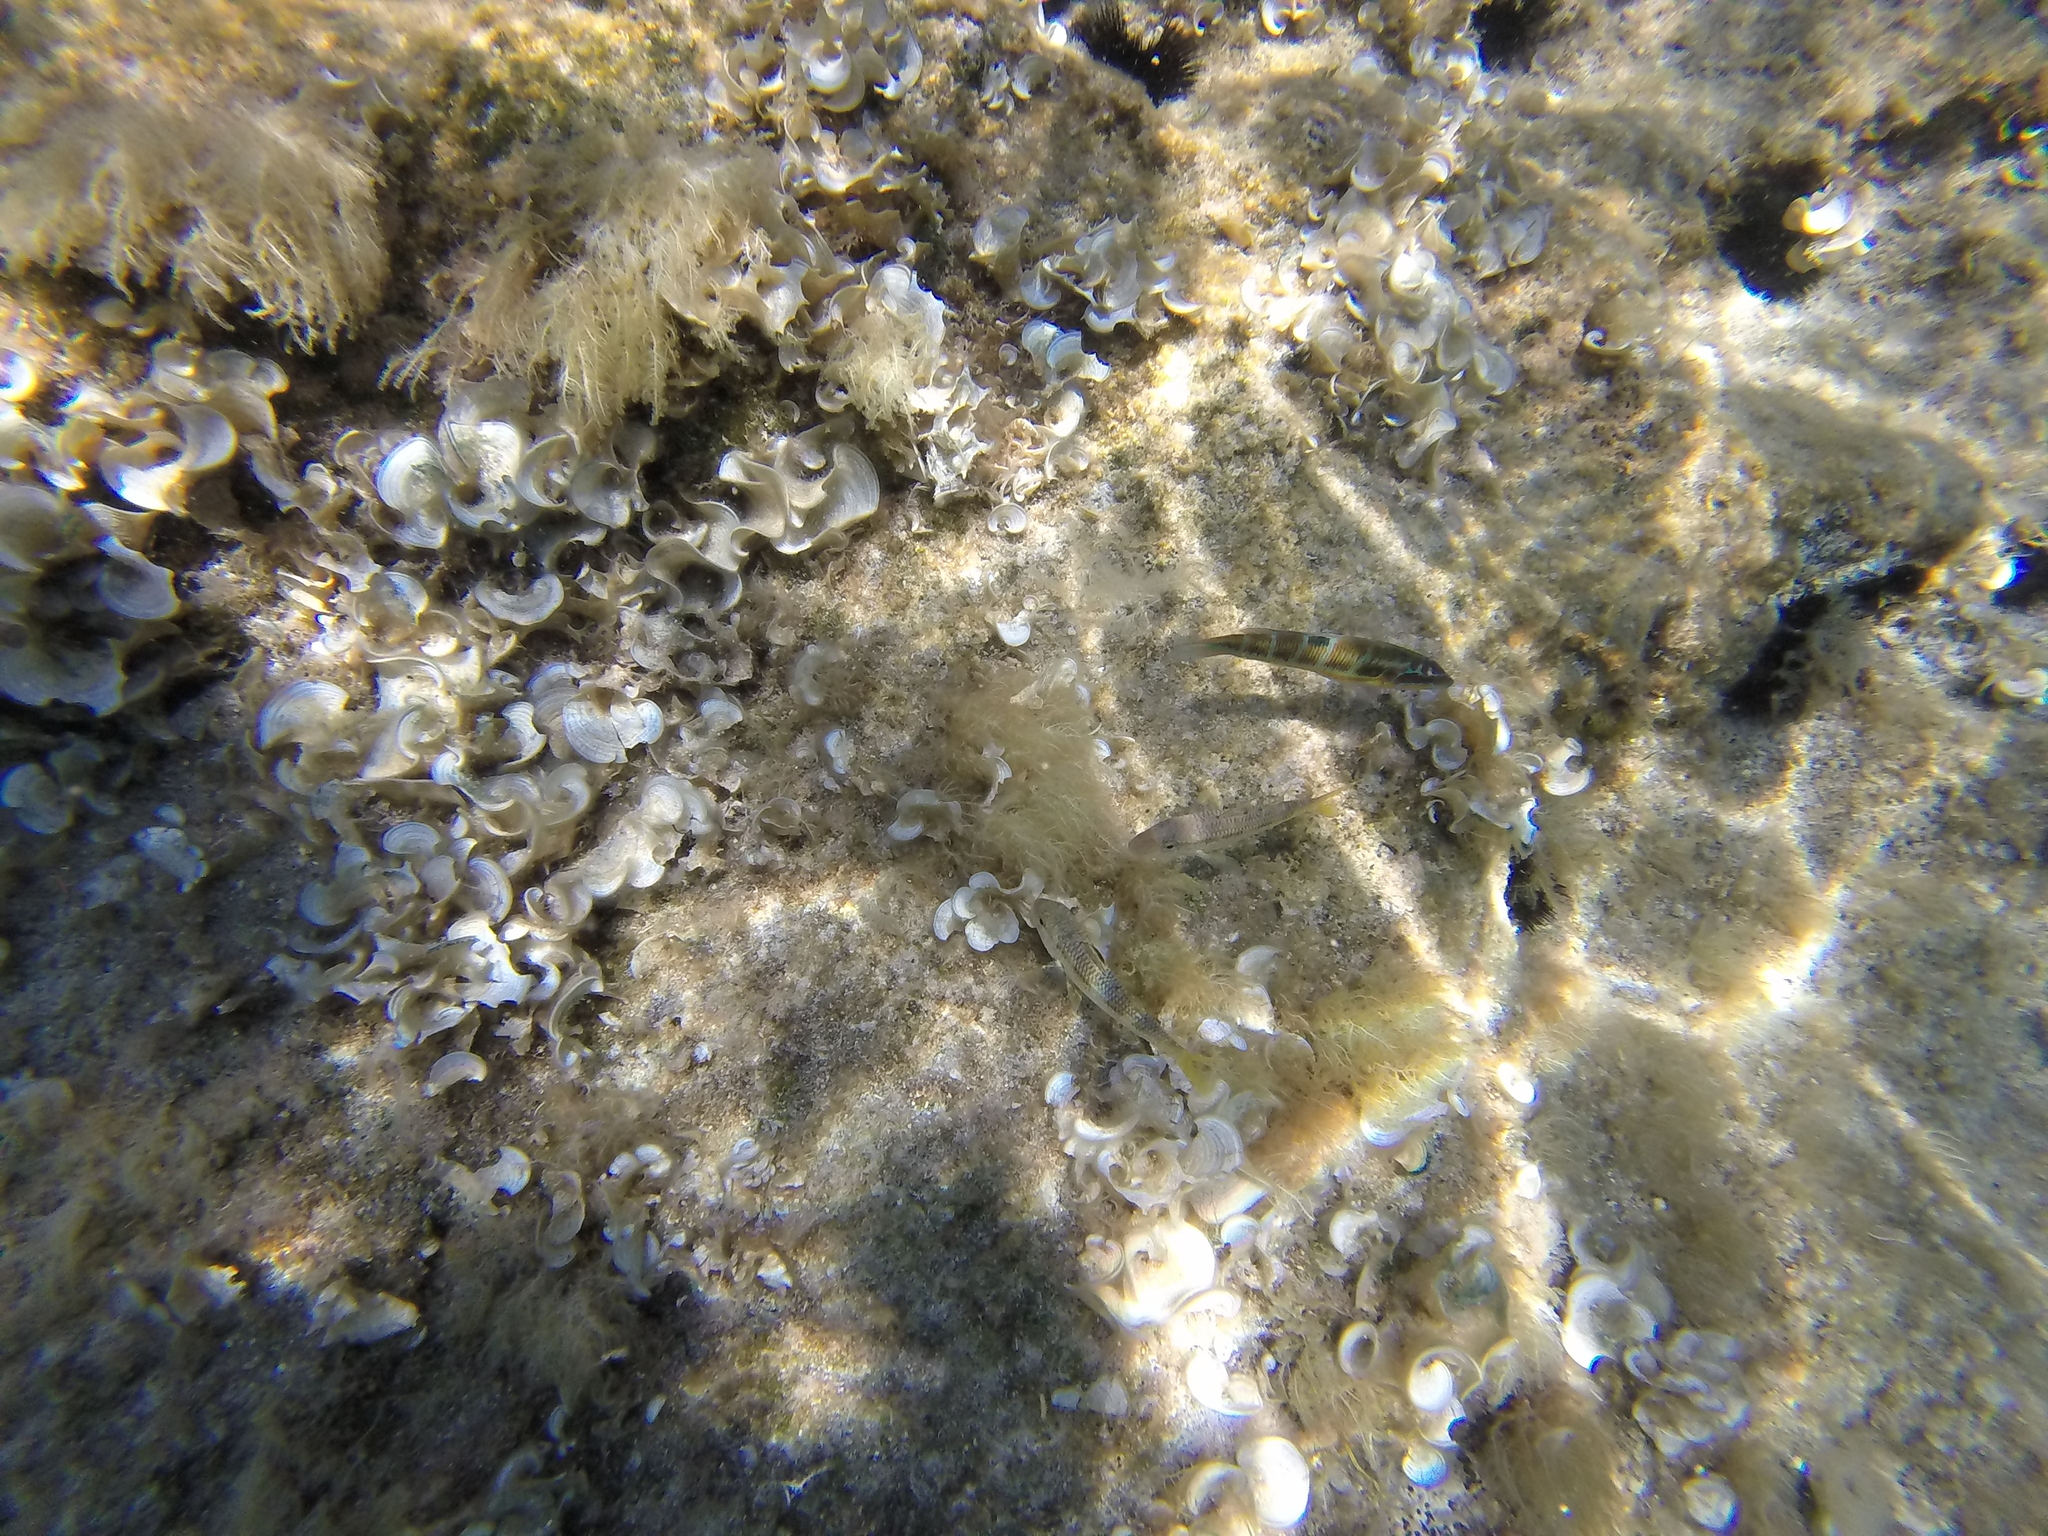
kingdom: Animalia
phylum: Chordata
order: Perciformes
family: Mullidae
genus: Mullus
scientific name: Mullus surmuletus
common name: Red mullet
